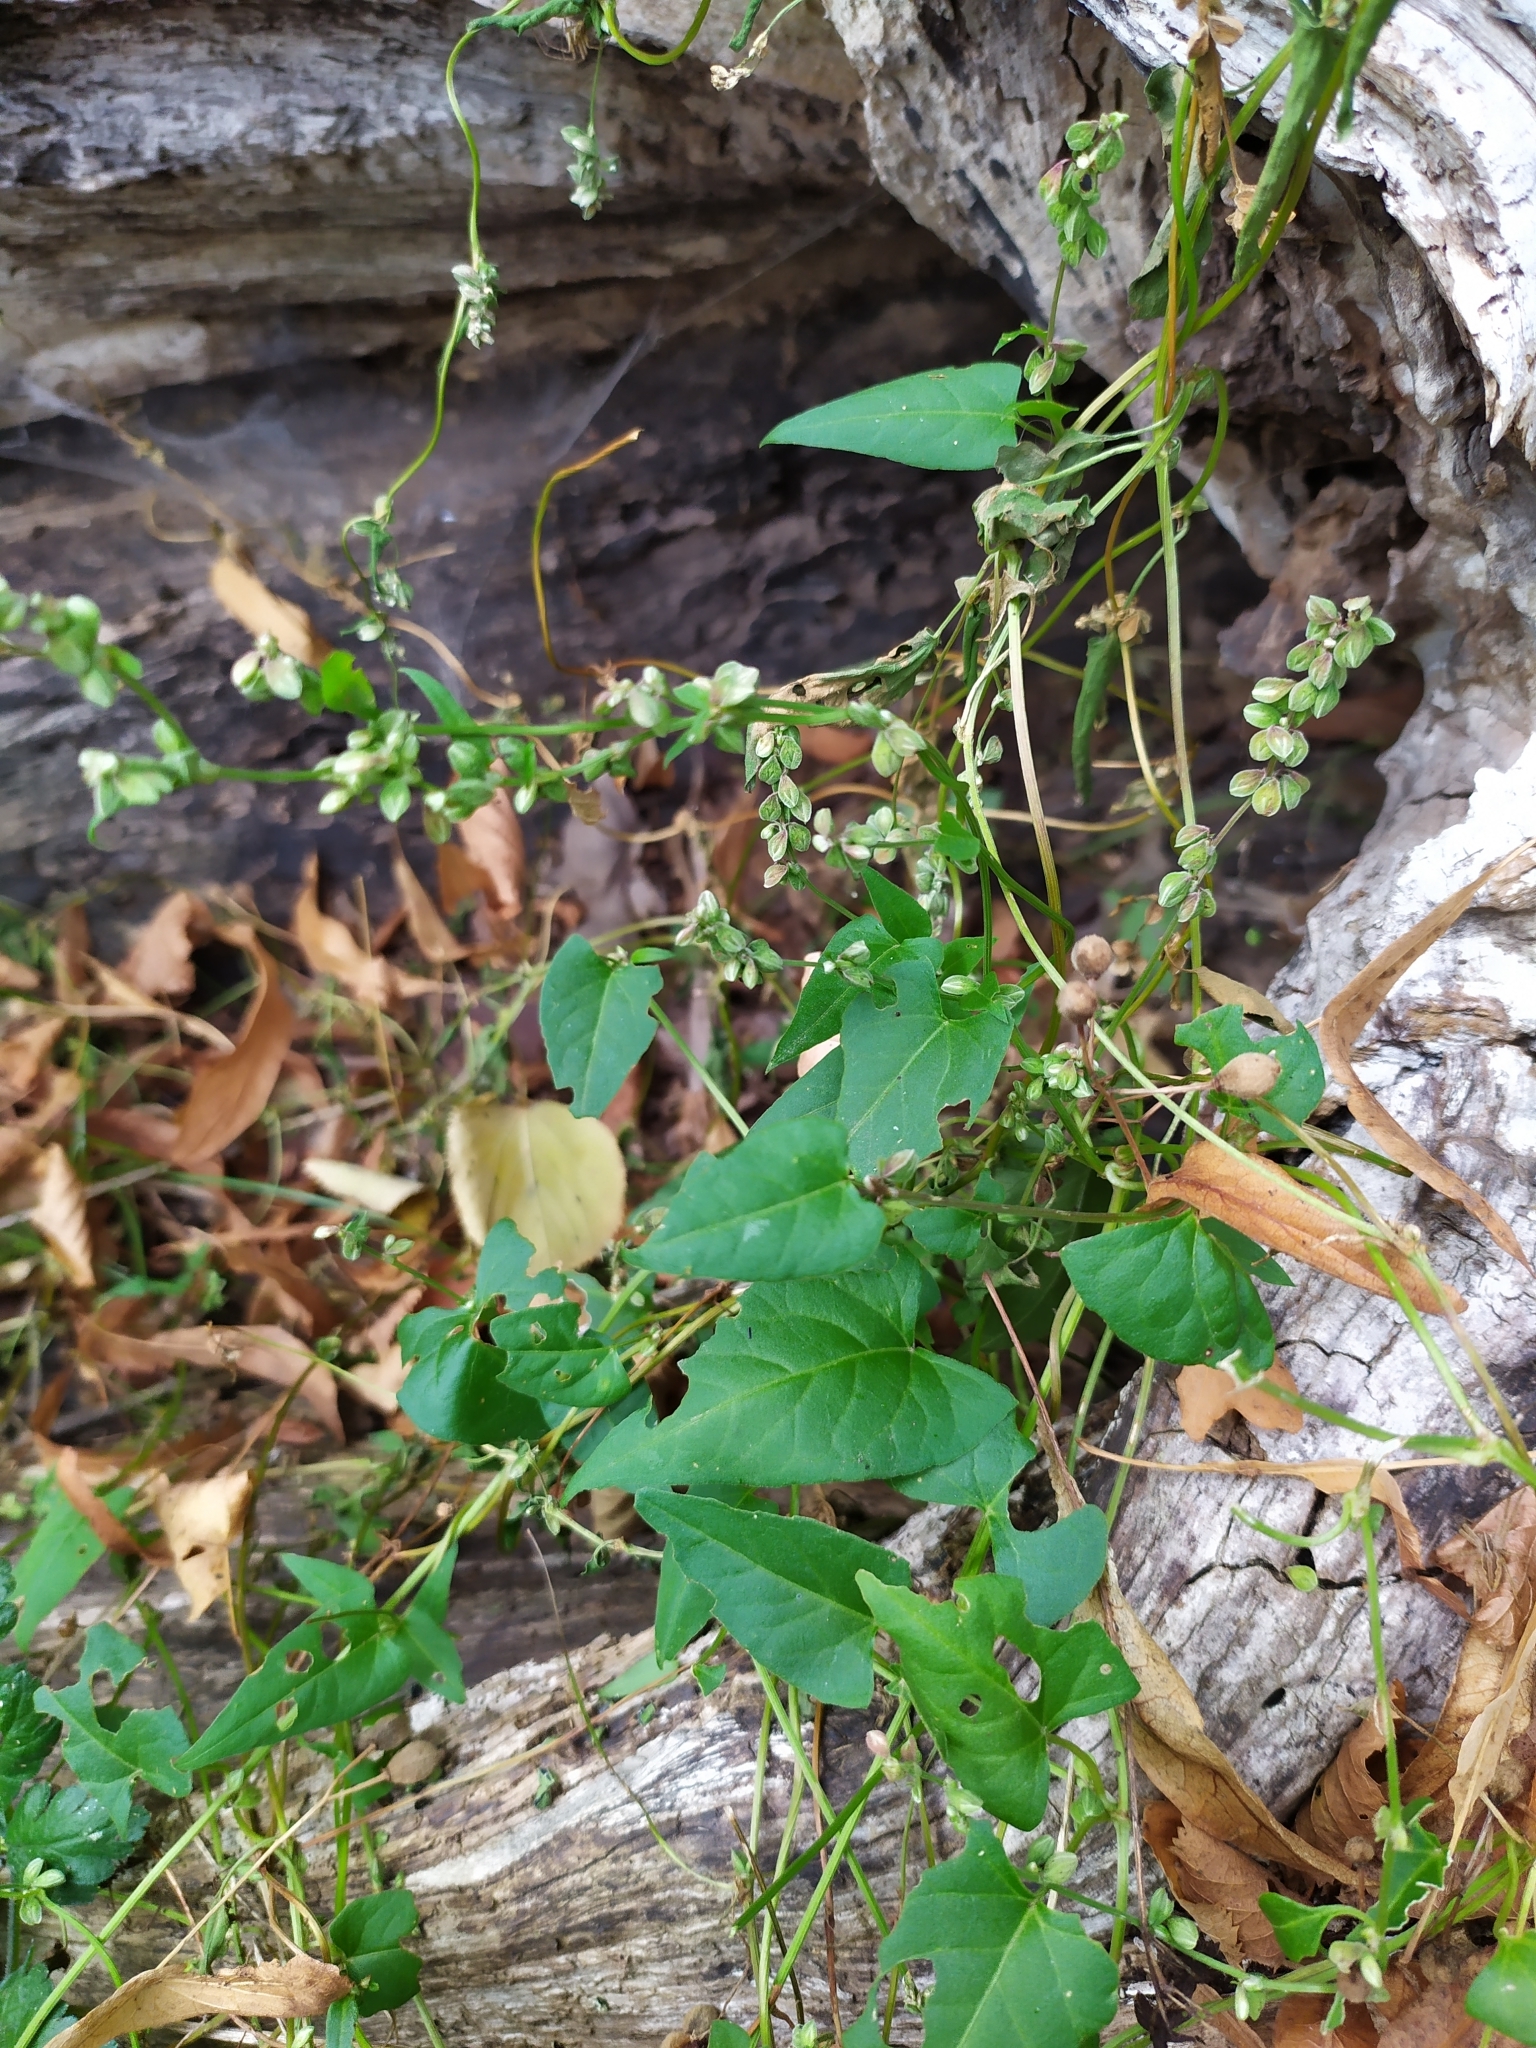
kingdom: Plantae
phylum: Tracheophyta
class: Magnoliopsida
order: Caryophyllales
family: Polygonaceae
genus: Fallopia
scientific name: Fallopia convolvulus
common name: Black bindweed
